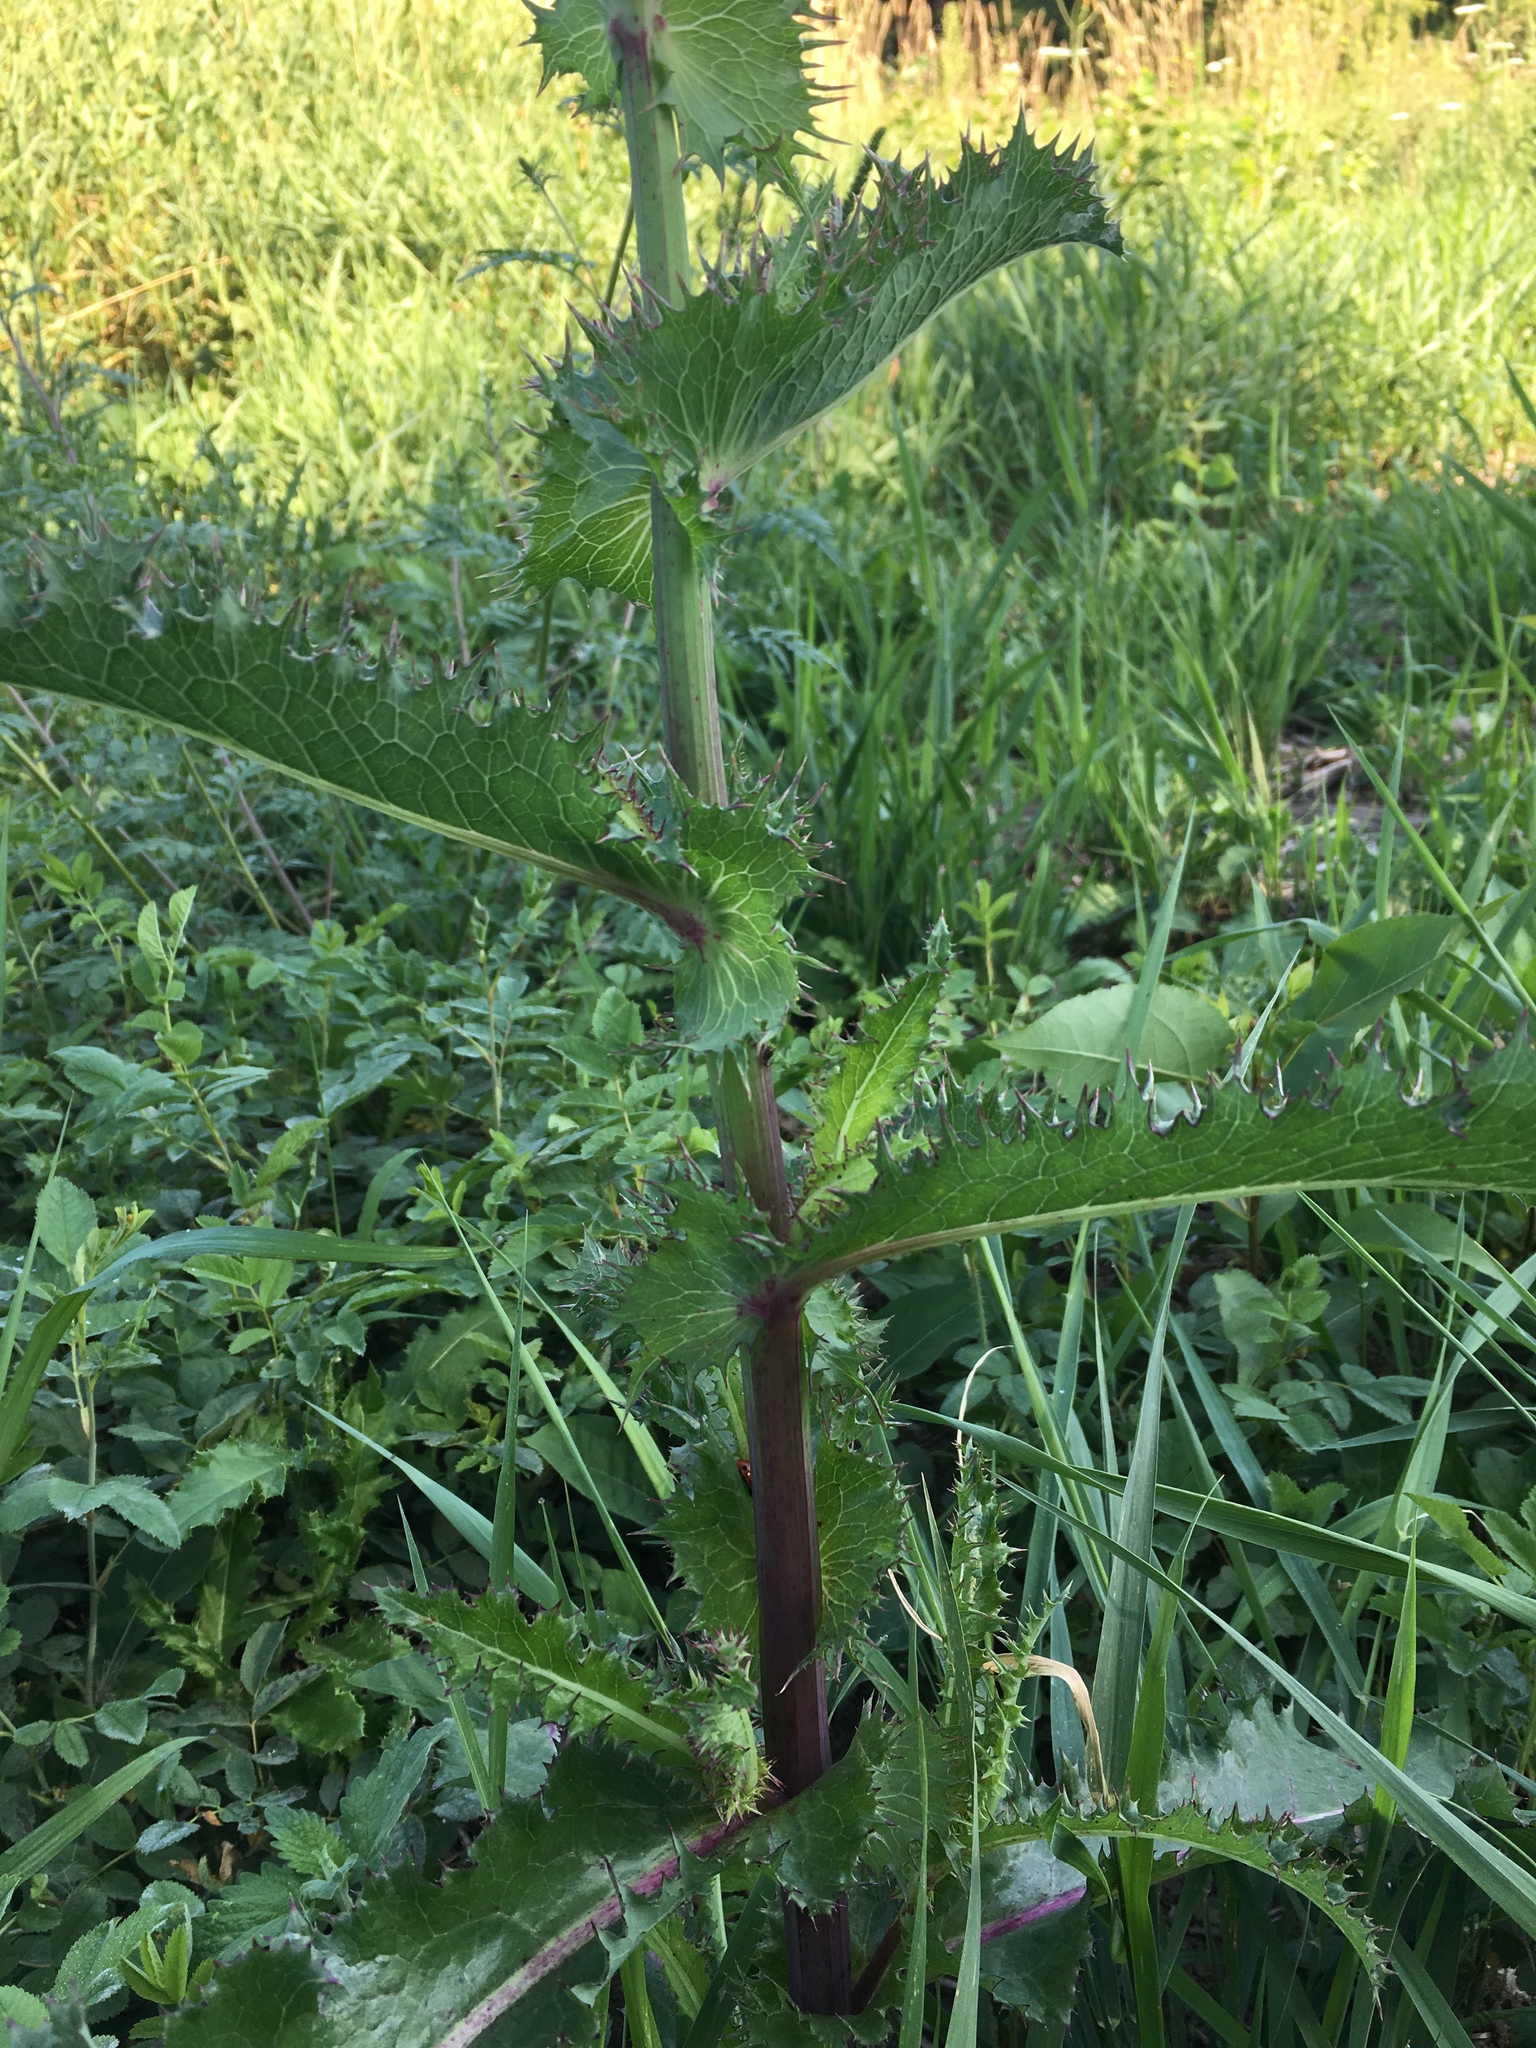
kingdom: Plantae
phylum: Tracheophyta
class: Magnoliopsida
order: Asterales
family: Asteraceae
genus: Sonchus
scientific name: Sonchus asper
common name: Prickly sow-thistle
